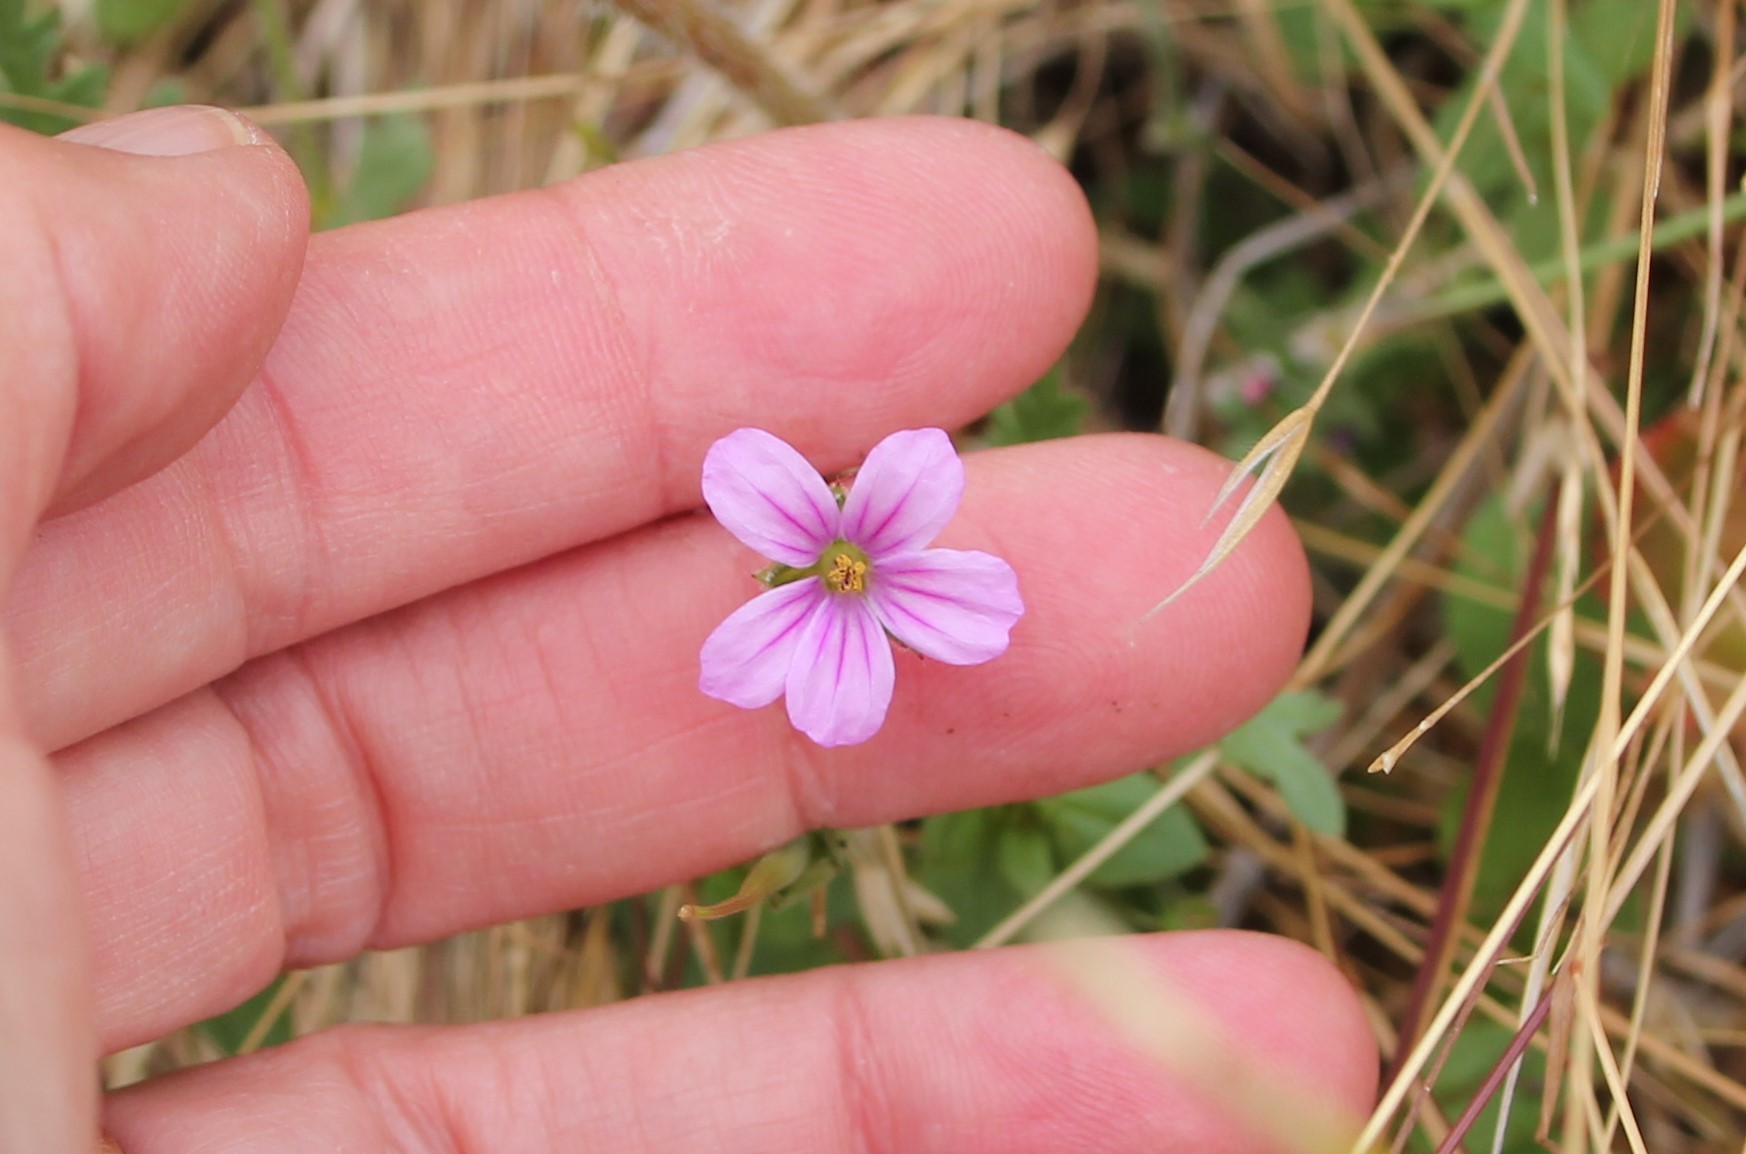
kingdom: Plantae
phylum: Tracheophyta
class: Magnoliopsida
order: Geraniales
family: Geraniaceae
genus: Erodium
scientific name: Erodium botrys
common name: Mediterranean stork's-bill
